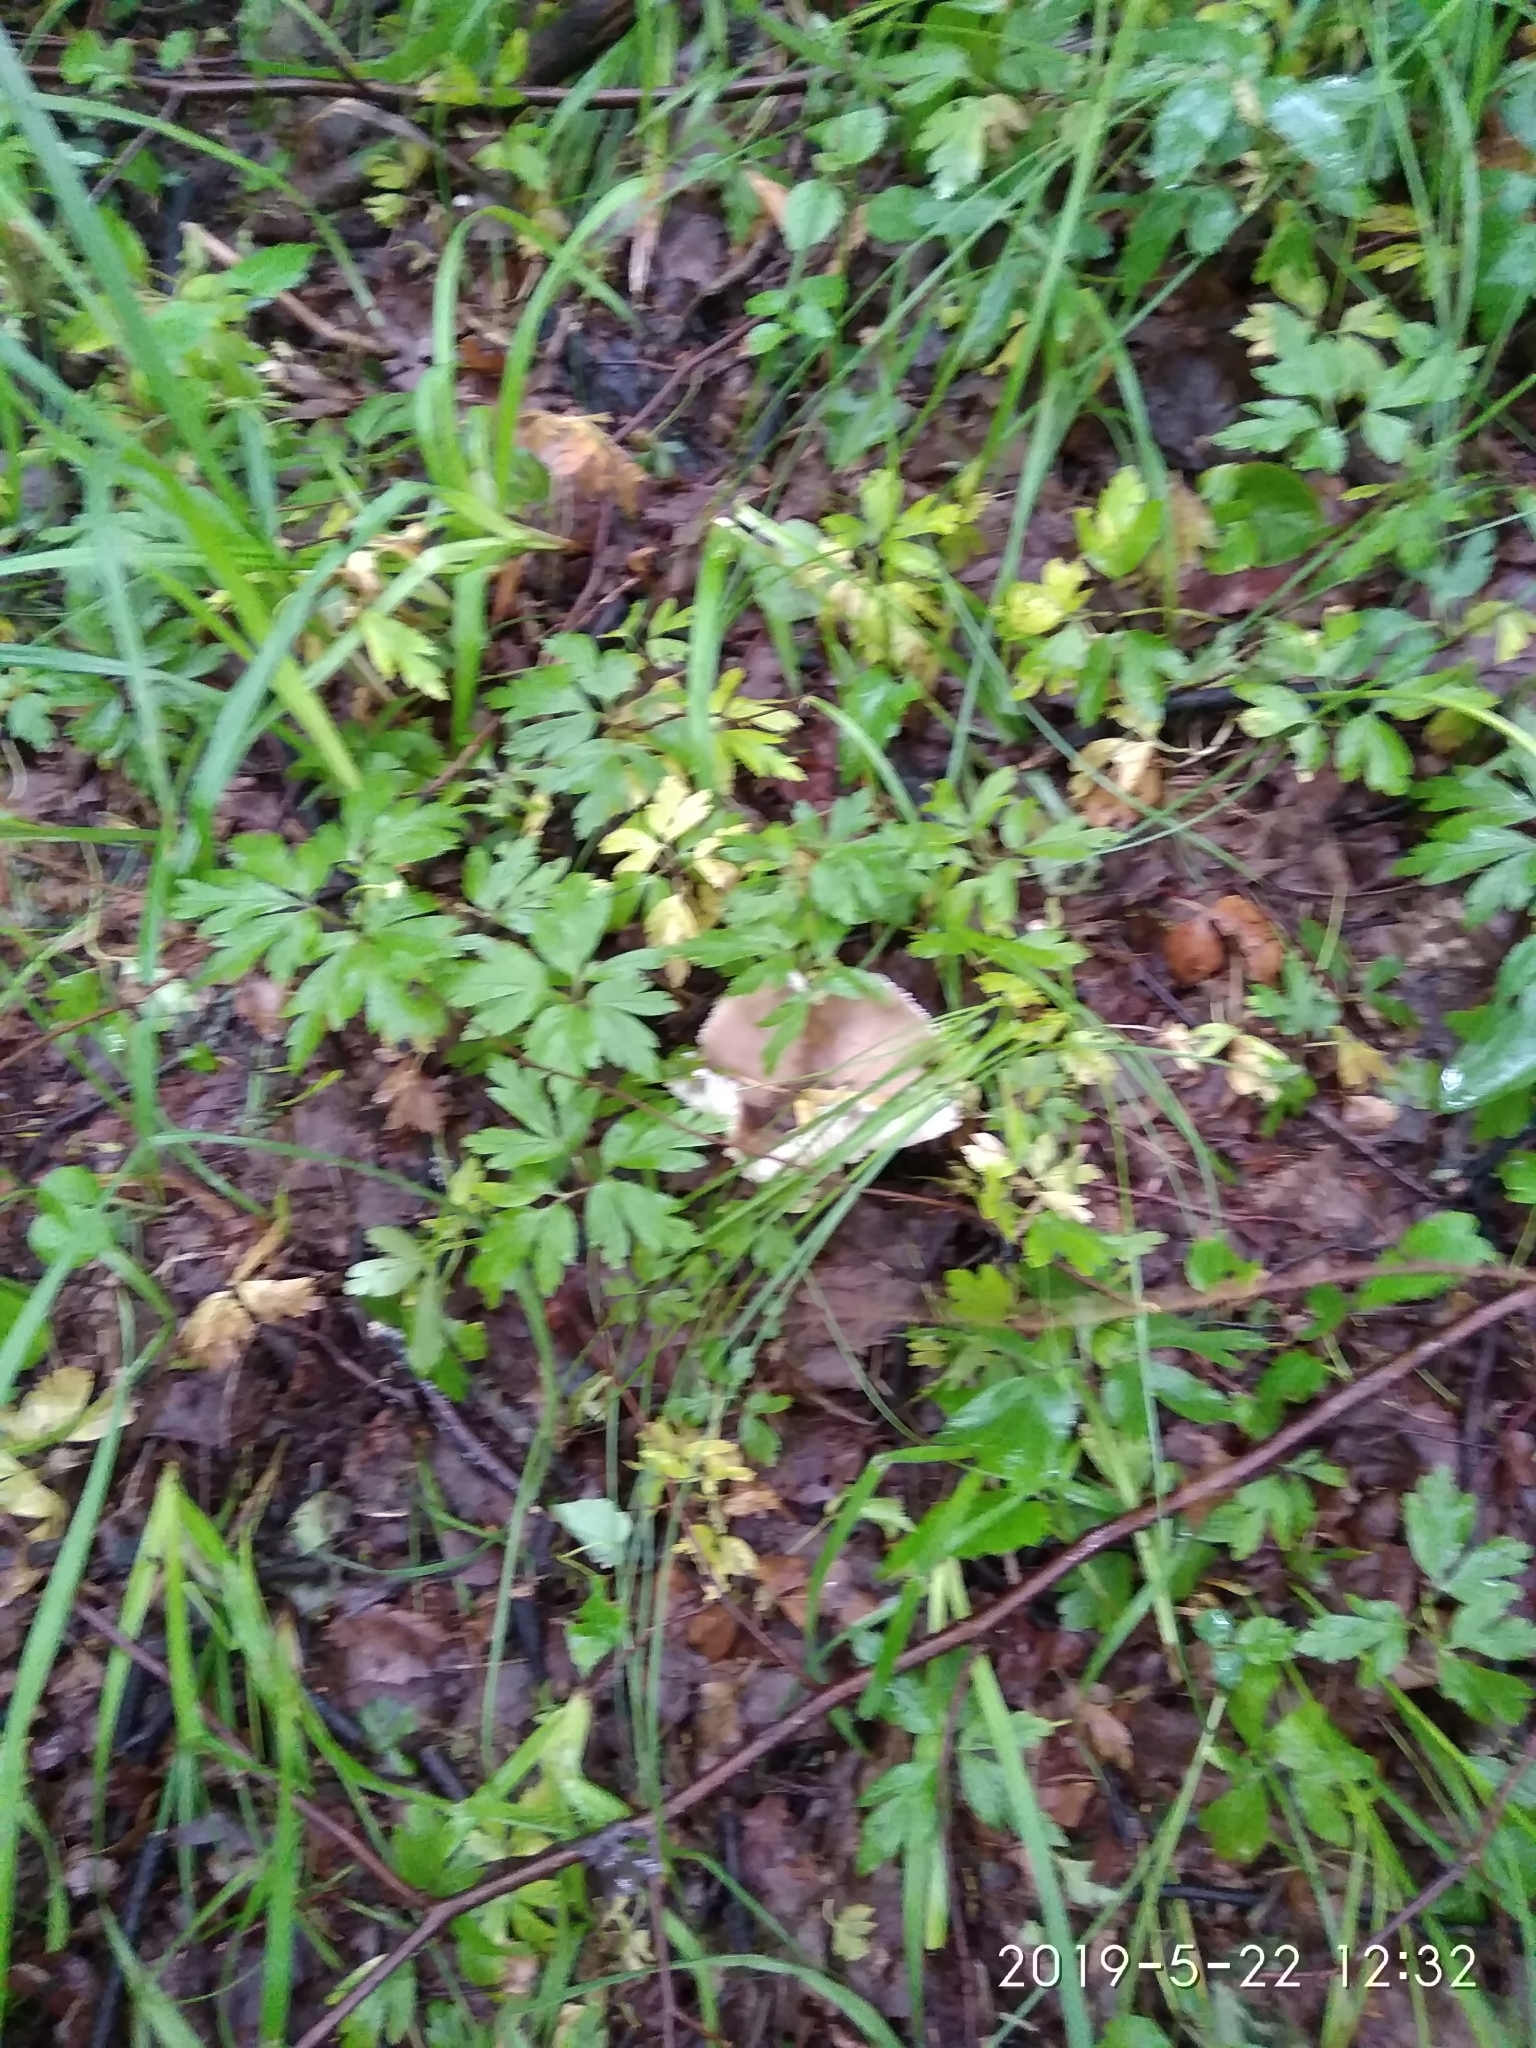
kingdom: Fungi
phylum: Basidiomycota
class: Agaricomycetes
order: Agaricales
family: Tricholomataceae
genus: Megacollybia
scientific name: Megacollybia platyphylla
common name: Whitelaced shank
